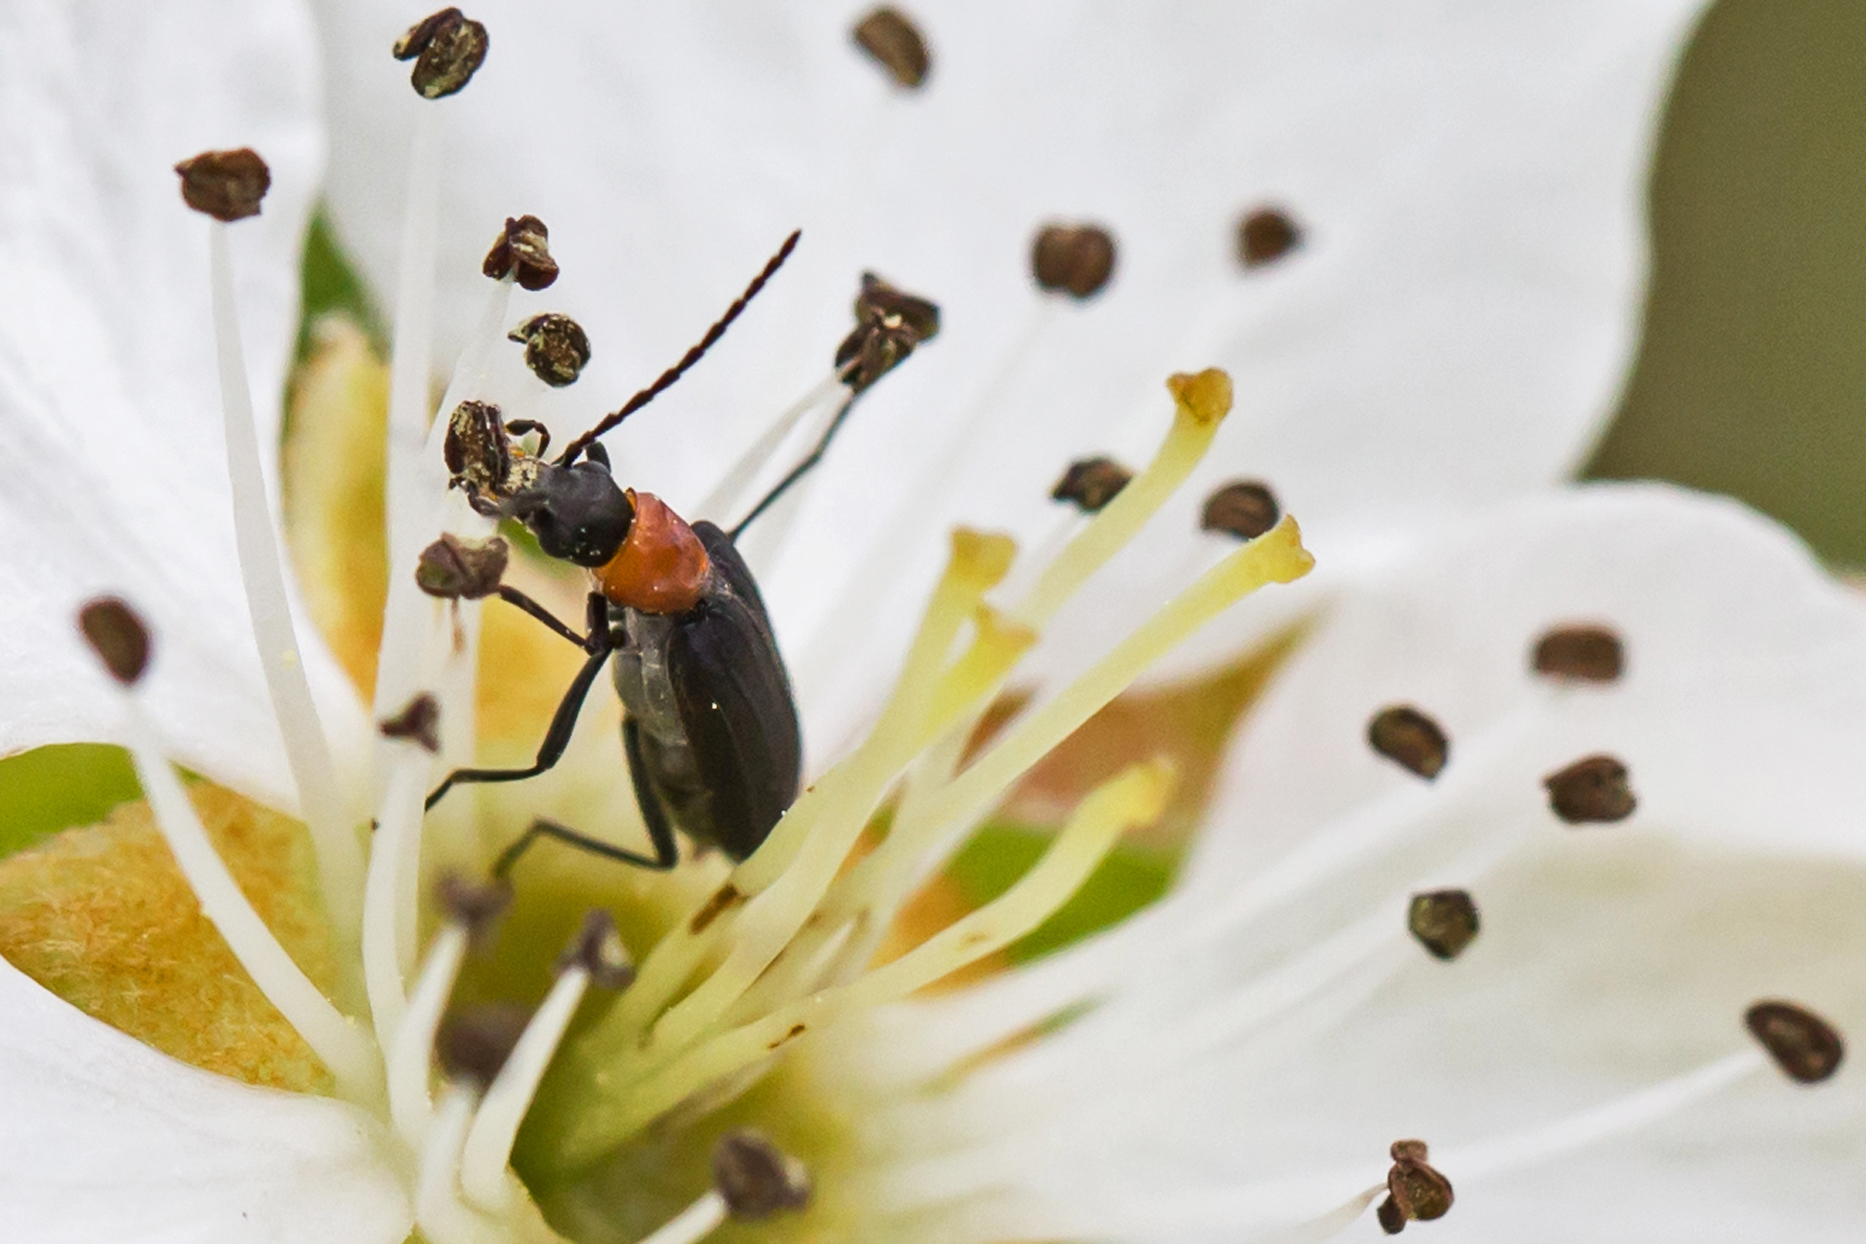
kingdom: Animalia
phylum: Arthropoda
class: Insecta
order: Coleoptera
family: Oedemeridae
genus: Ischnomera
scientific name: Ischnomera
